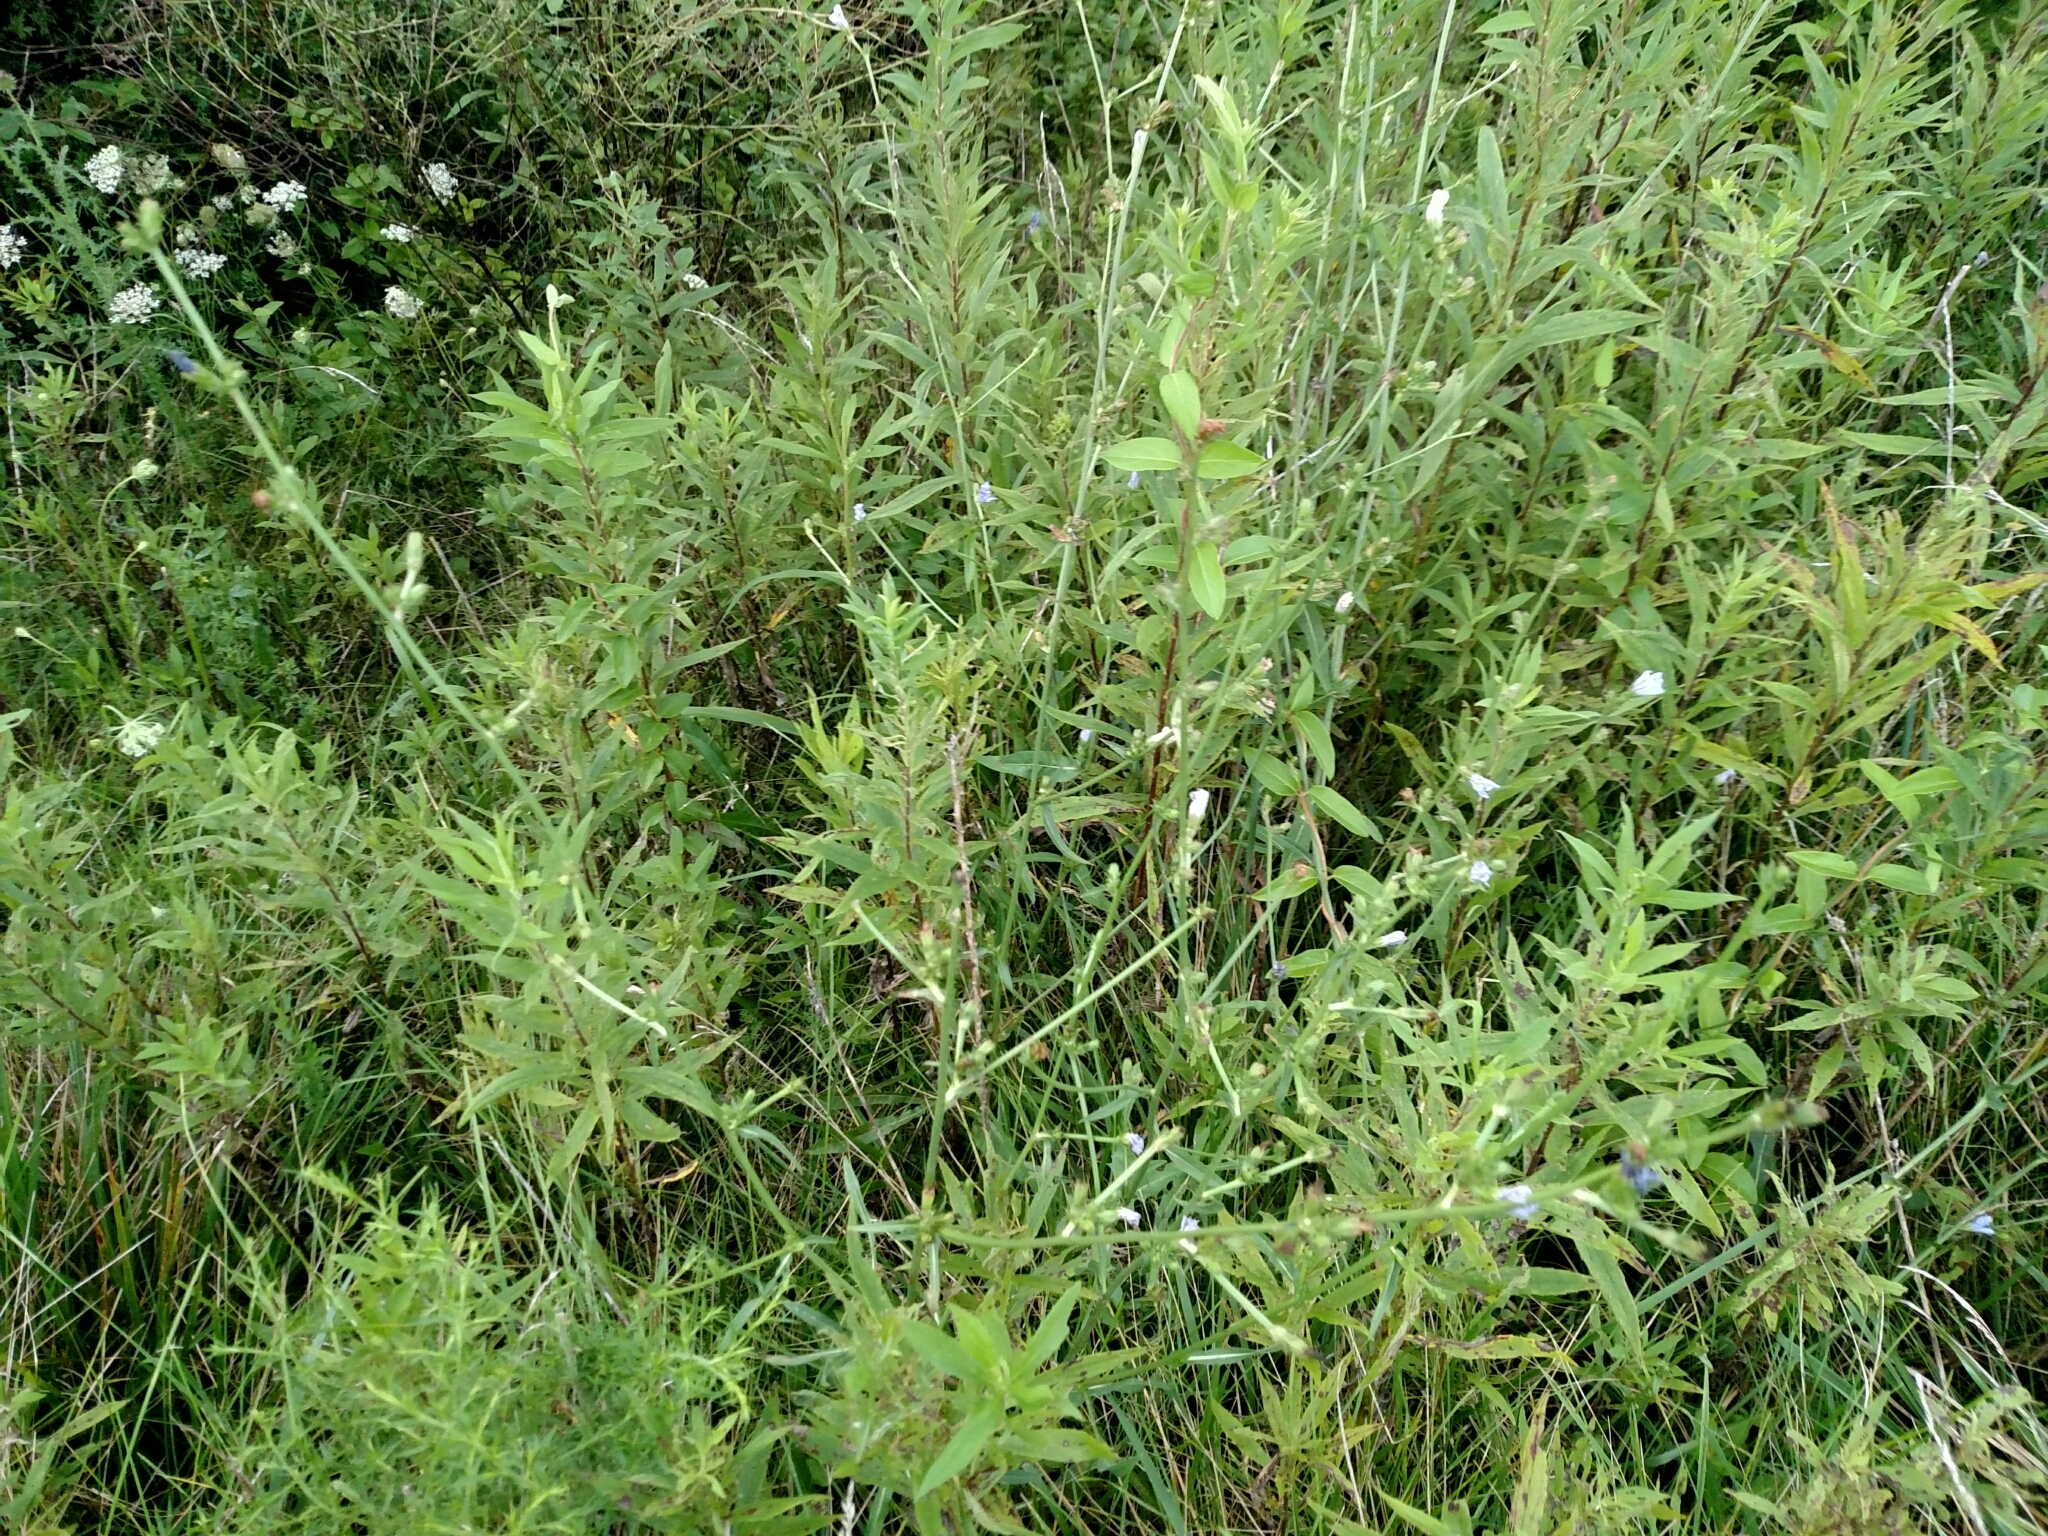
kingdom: Plantae
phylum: Tracheophyta
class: Magnoliopsida
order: Asterales
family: Asteraceae
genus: Cichorium
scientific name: Cichorium intybus
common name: Chicory
